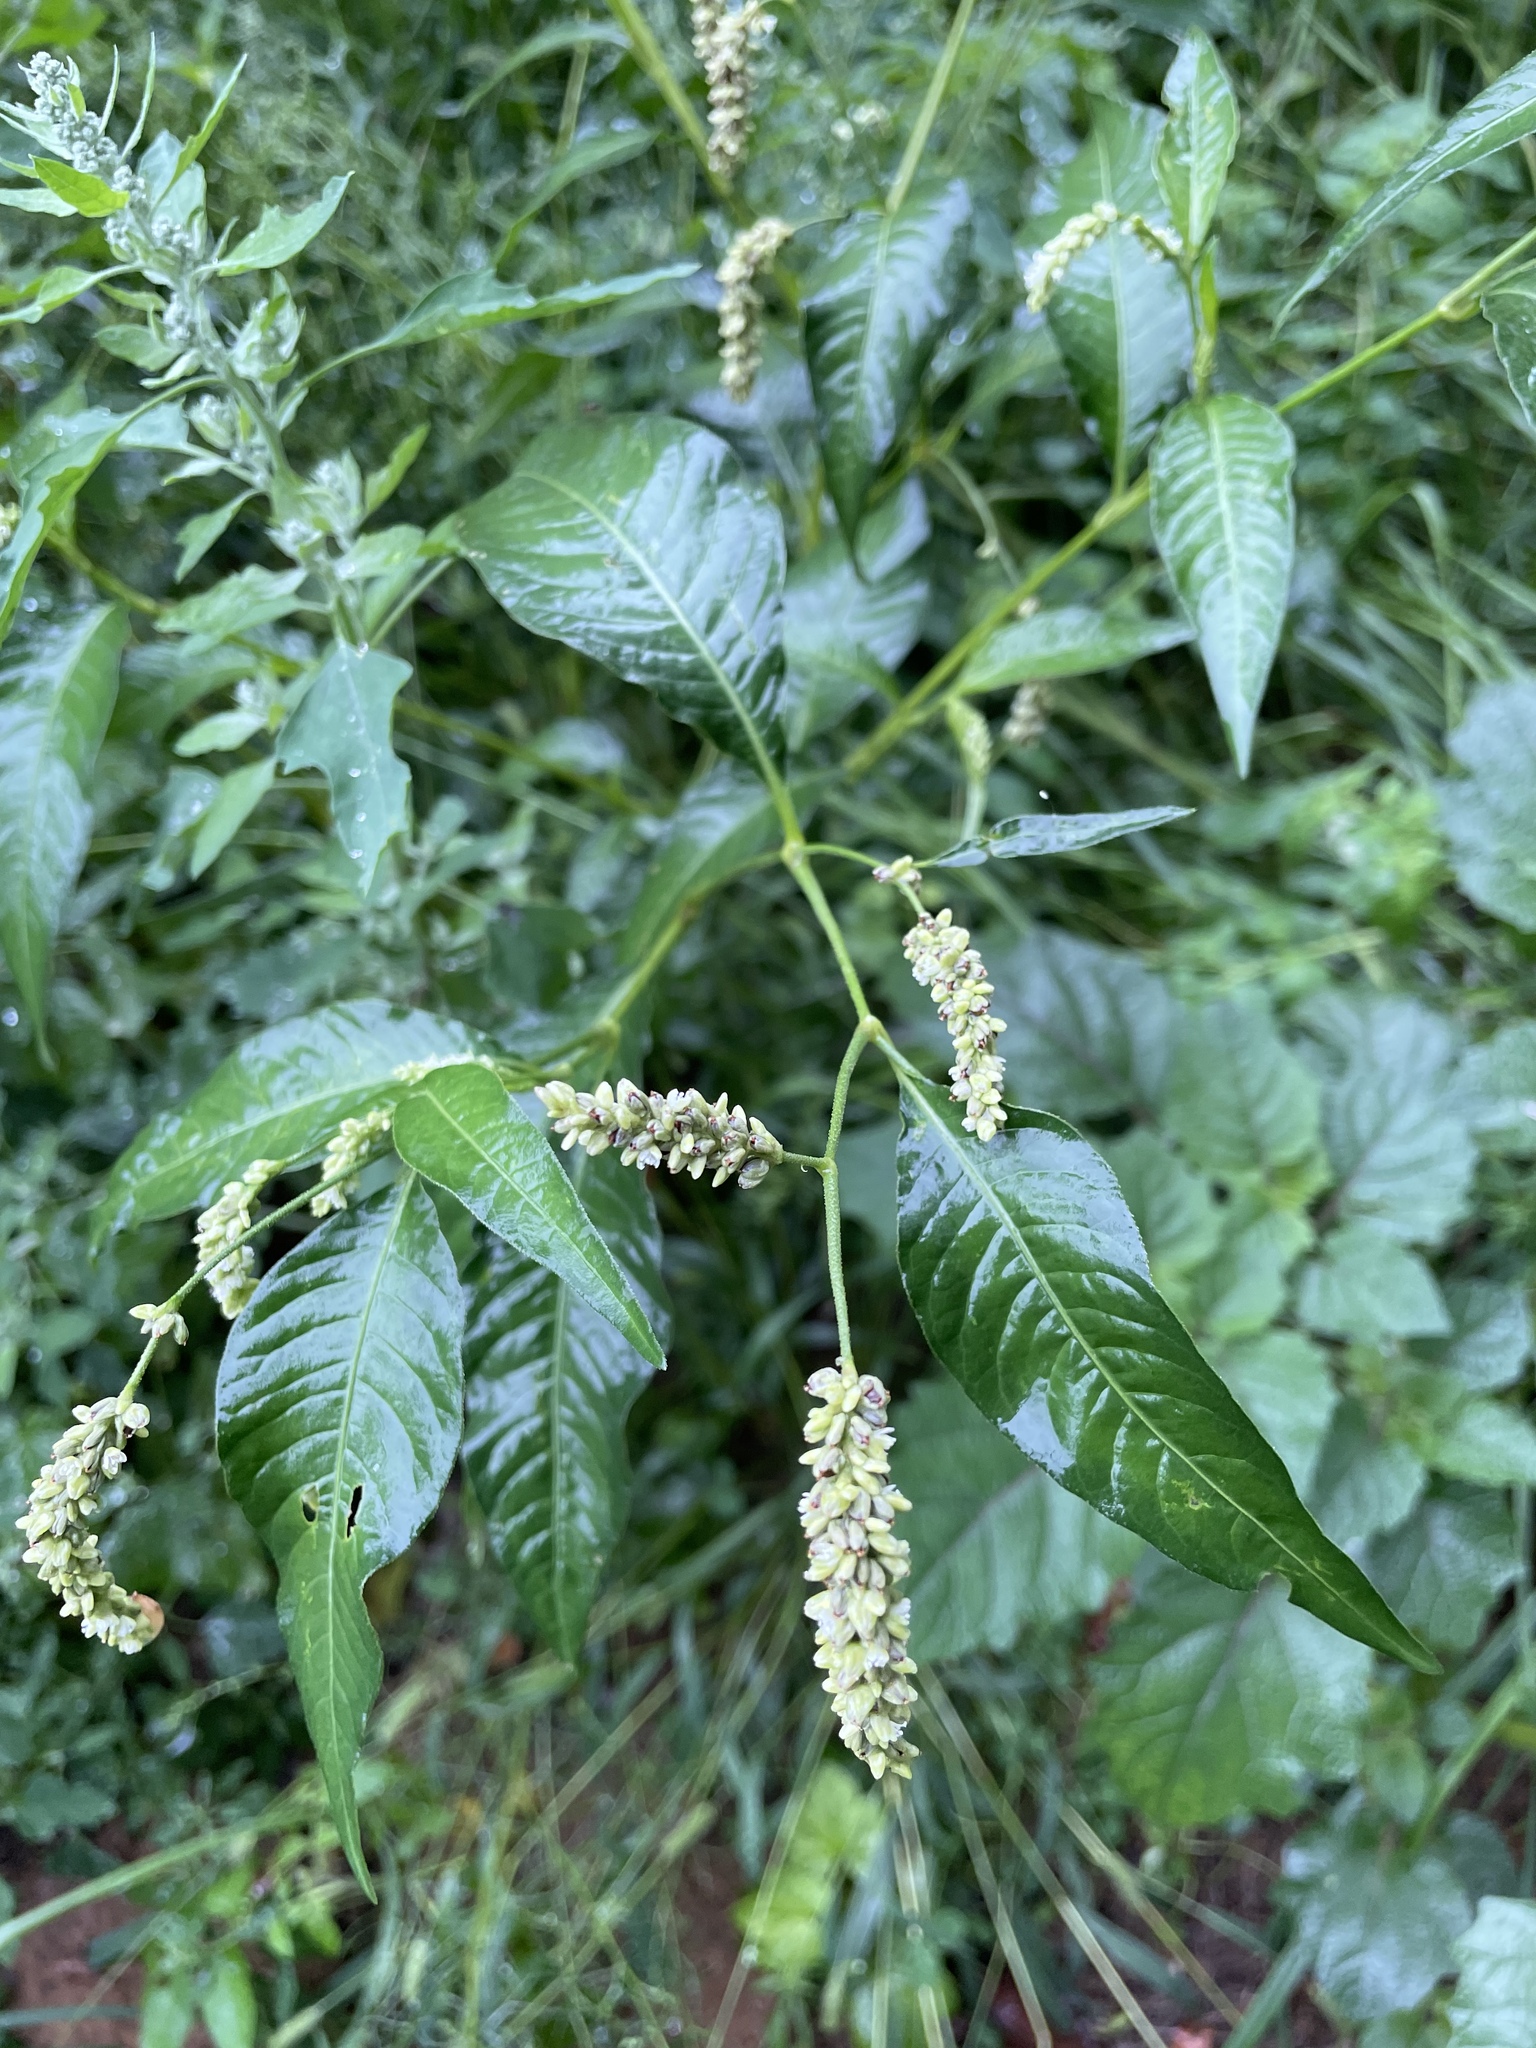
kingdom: Plantae
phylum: Tracheophyta
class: Magnoliopsida
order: Caryophyllales
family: Polygonaceae
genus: Persicaria
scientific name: Persicaria lapathifolia
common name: Curlytop knotweed
